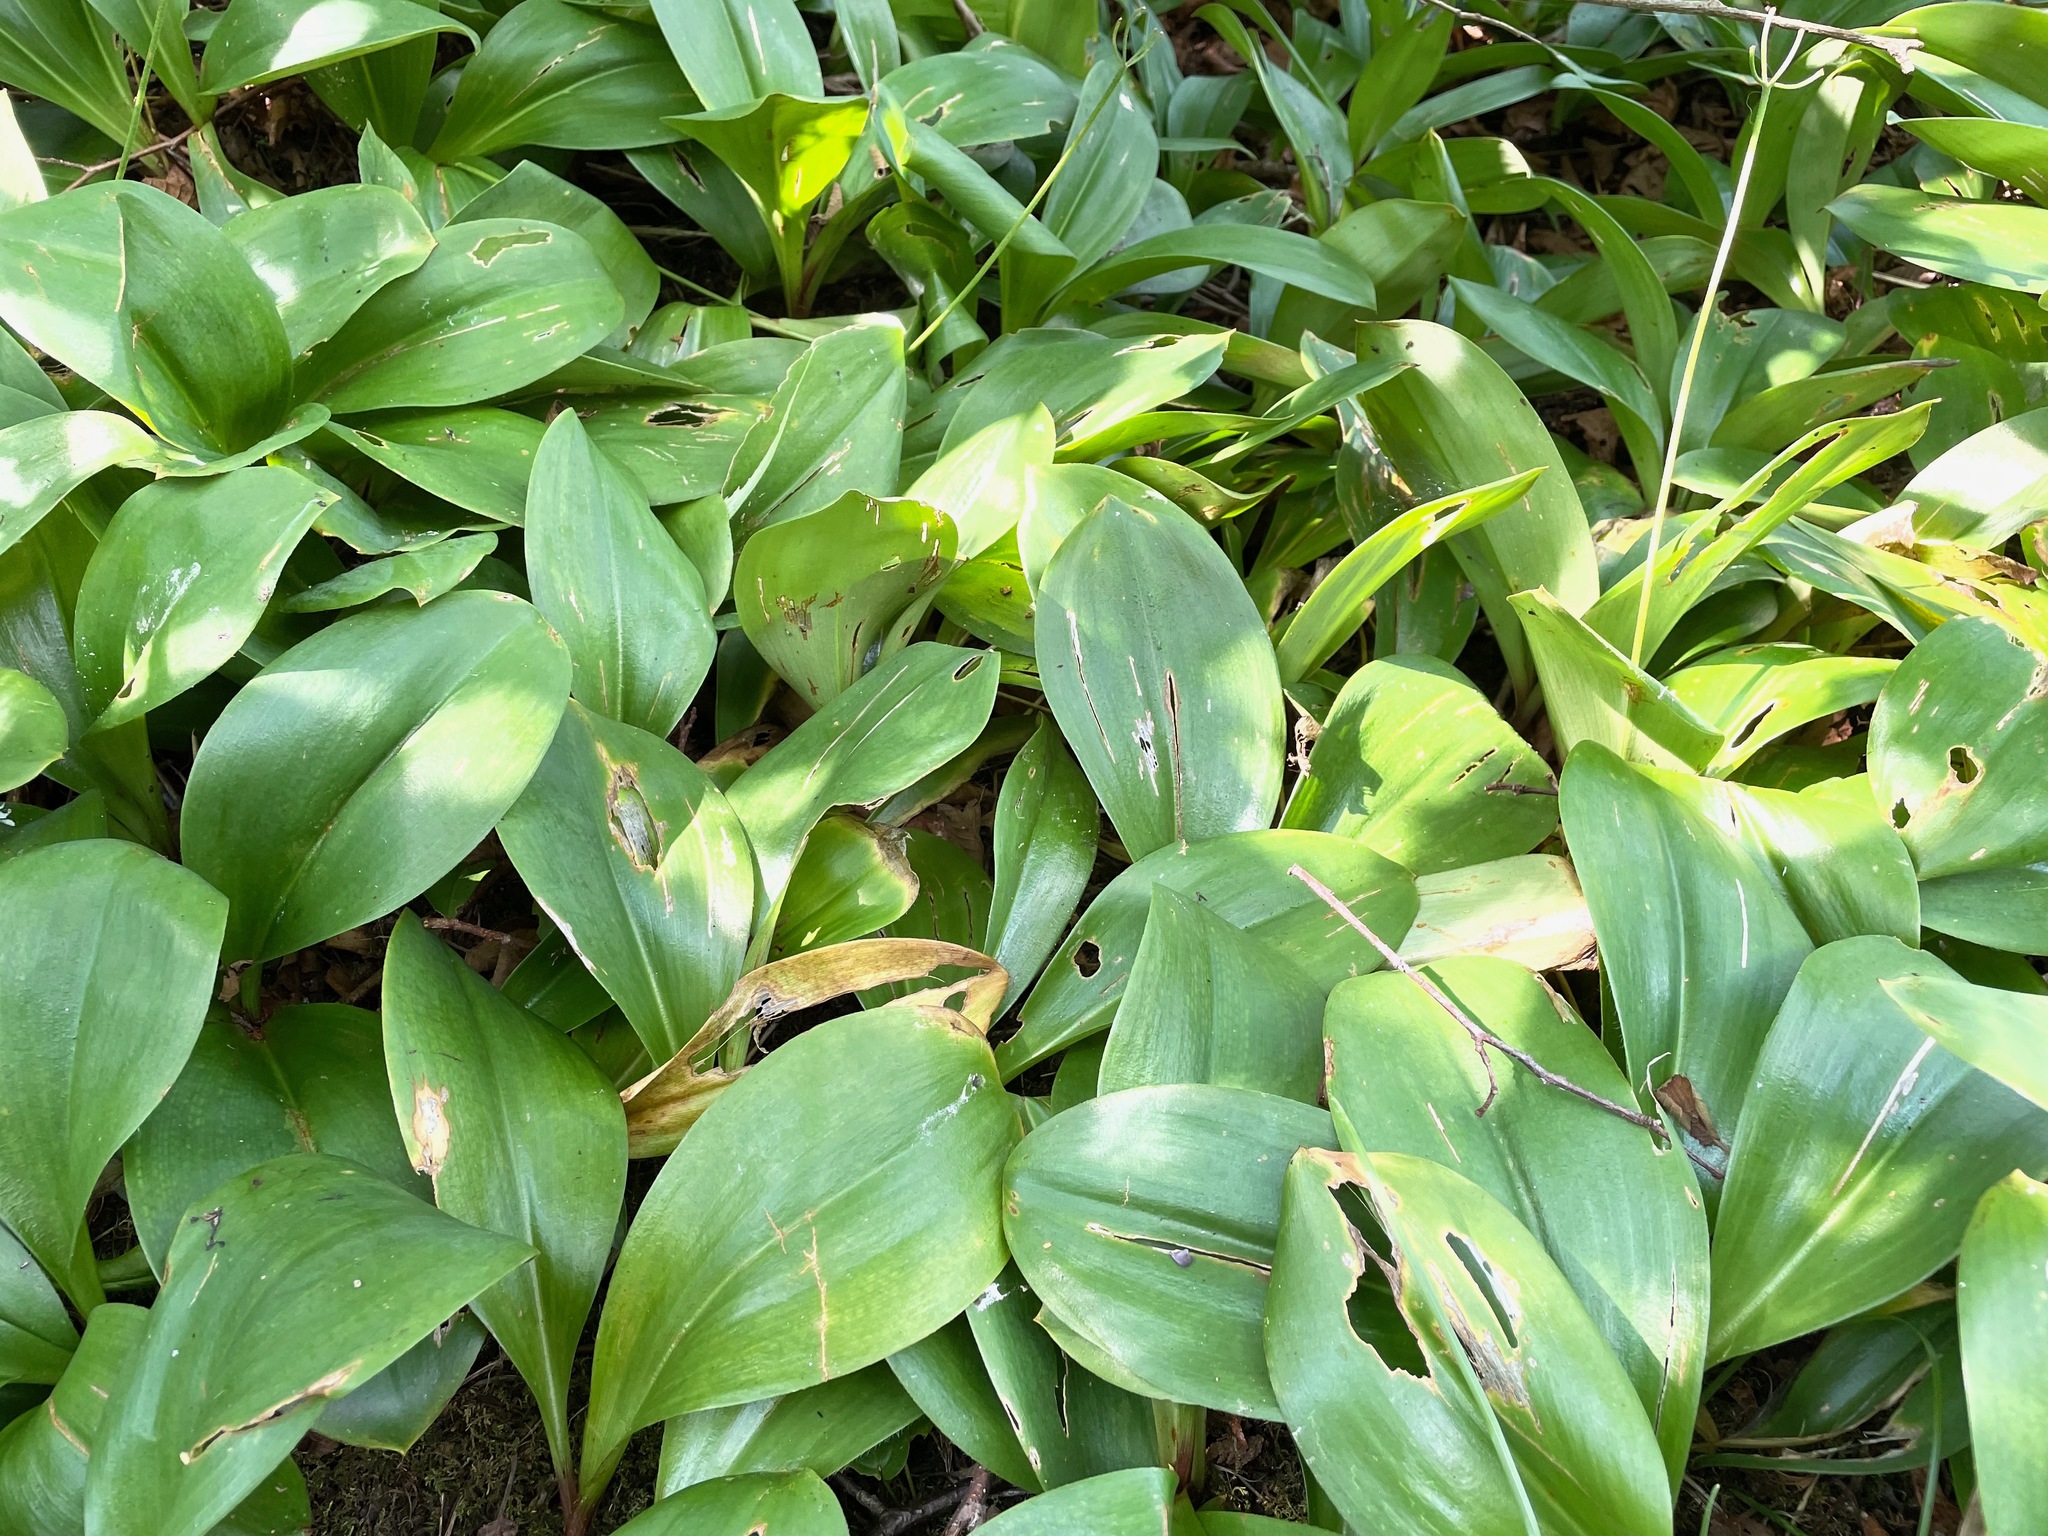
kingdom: Plantae
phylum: Tracheophyta
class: Liliopsida
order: Liliales
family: Liliaceae
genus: Clintonia
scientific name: Clintonia borealis
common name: Yellow clintonia
